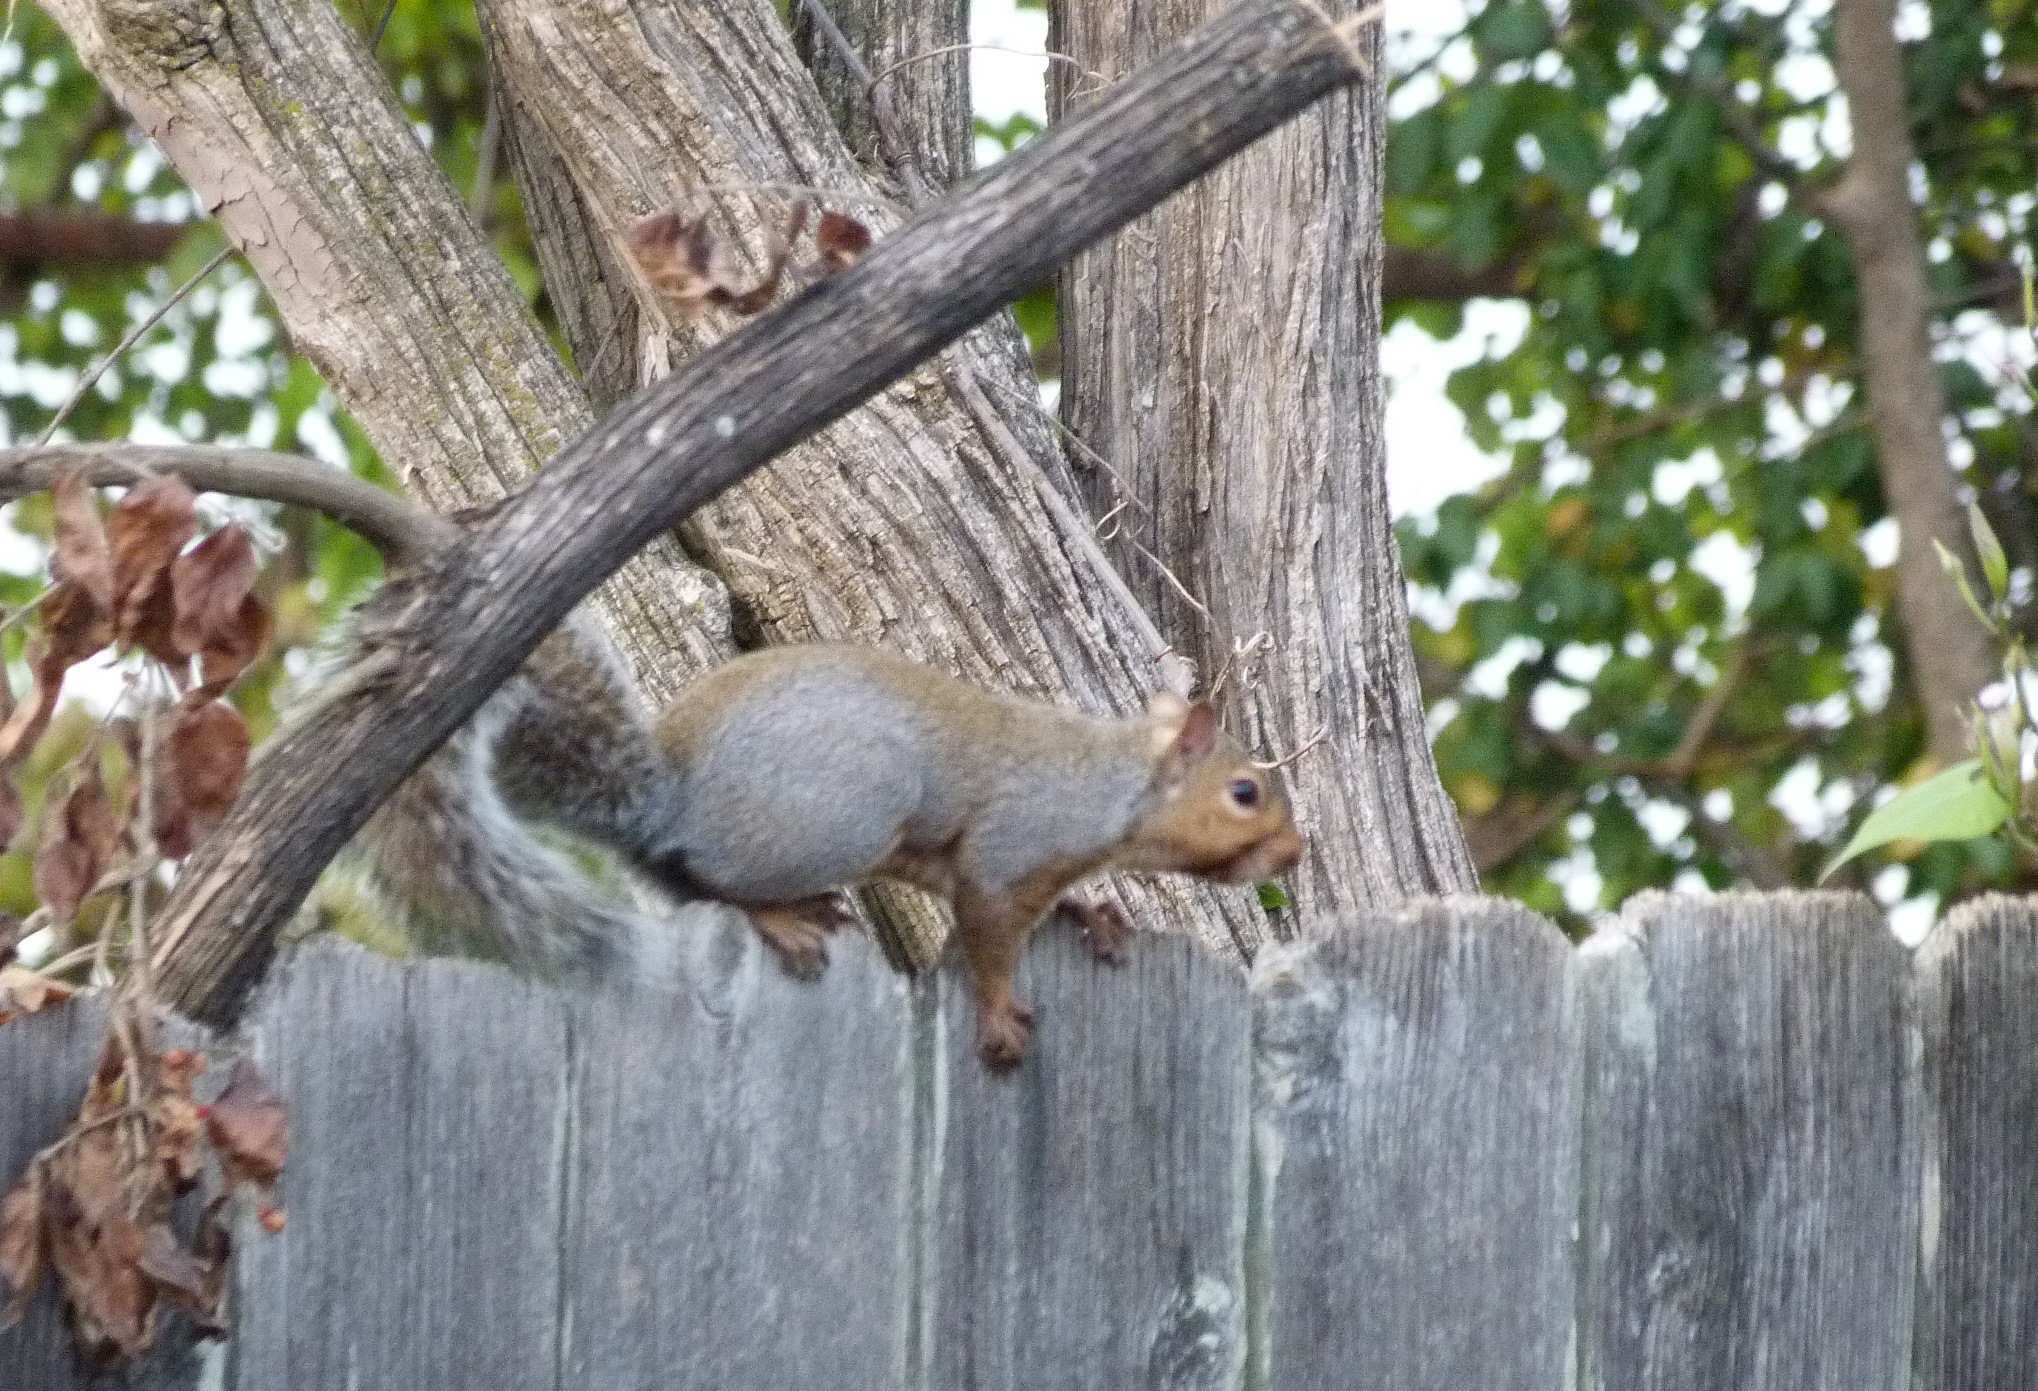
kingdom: Animalia
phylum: Chordata
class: Mammalia
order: Rodentia
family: Sciuridae
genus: Sciurus
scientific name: Sciurus carolinensis
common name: Eastern gray squirrel
